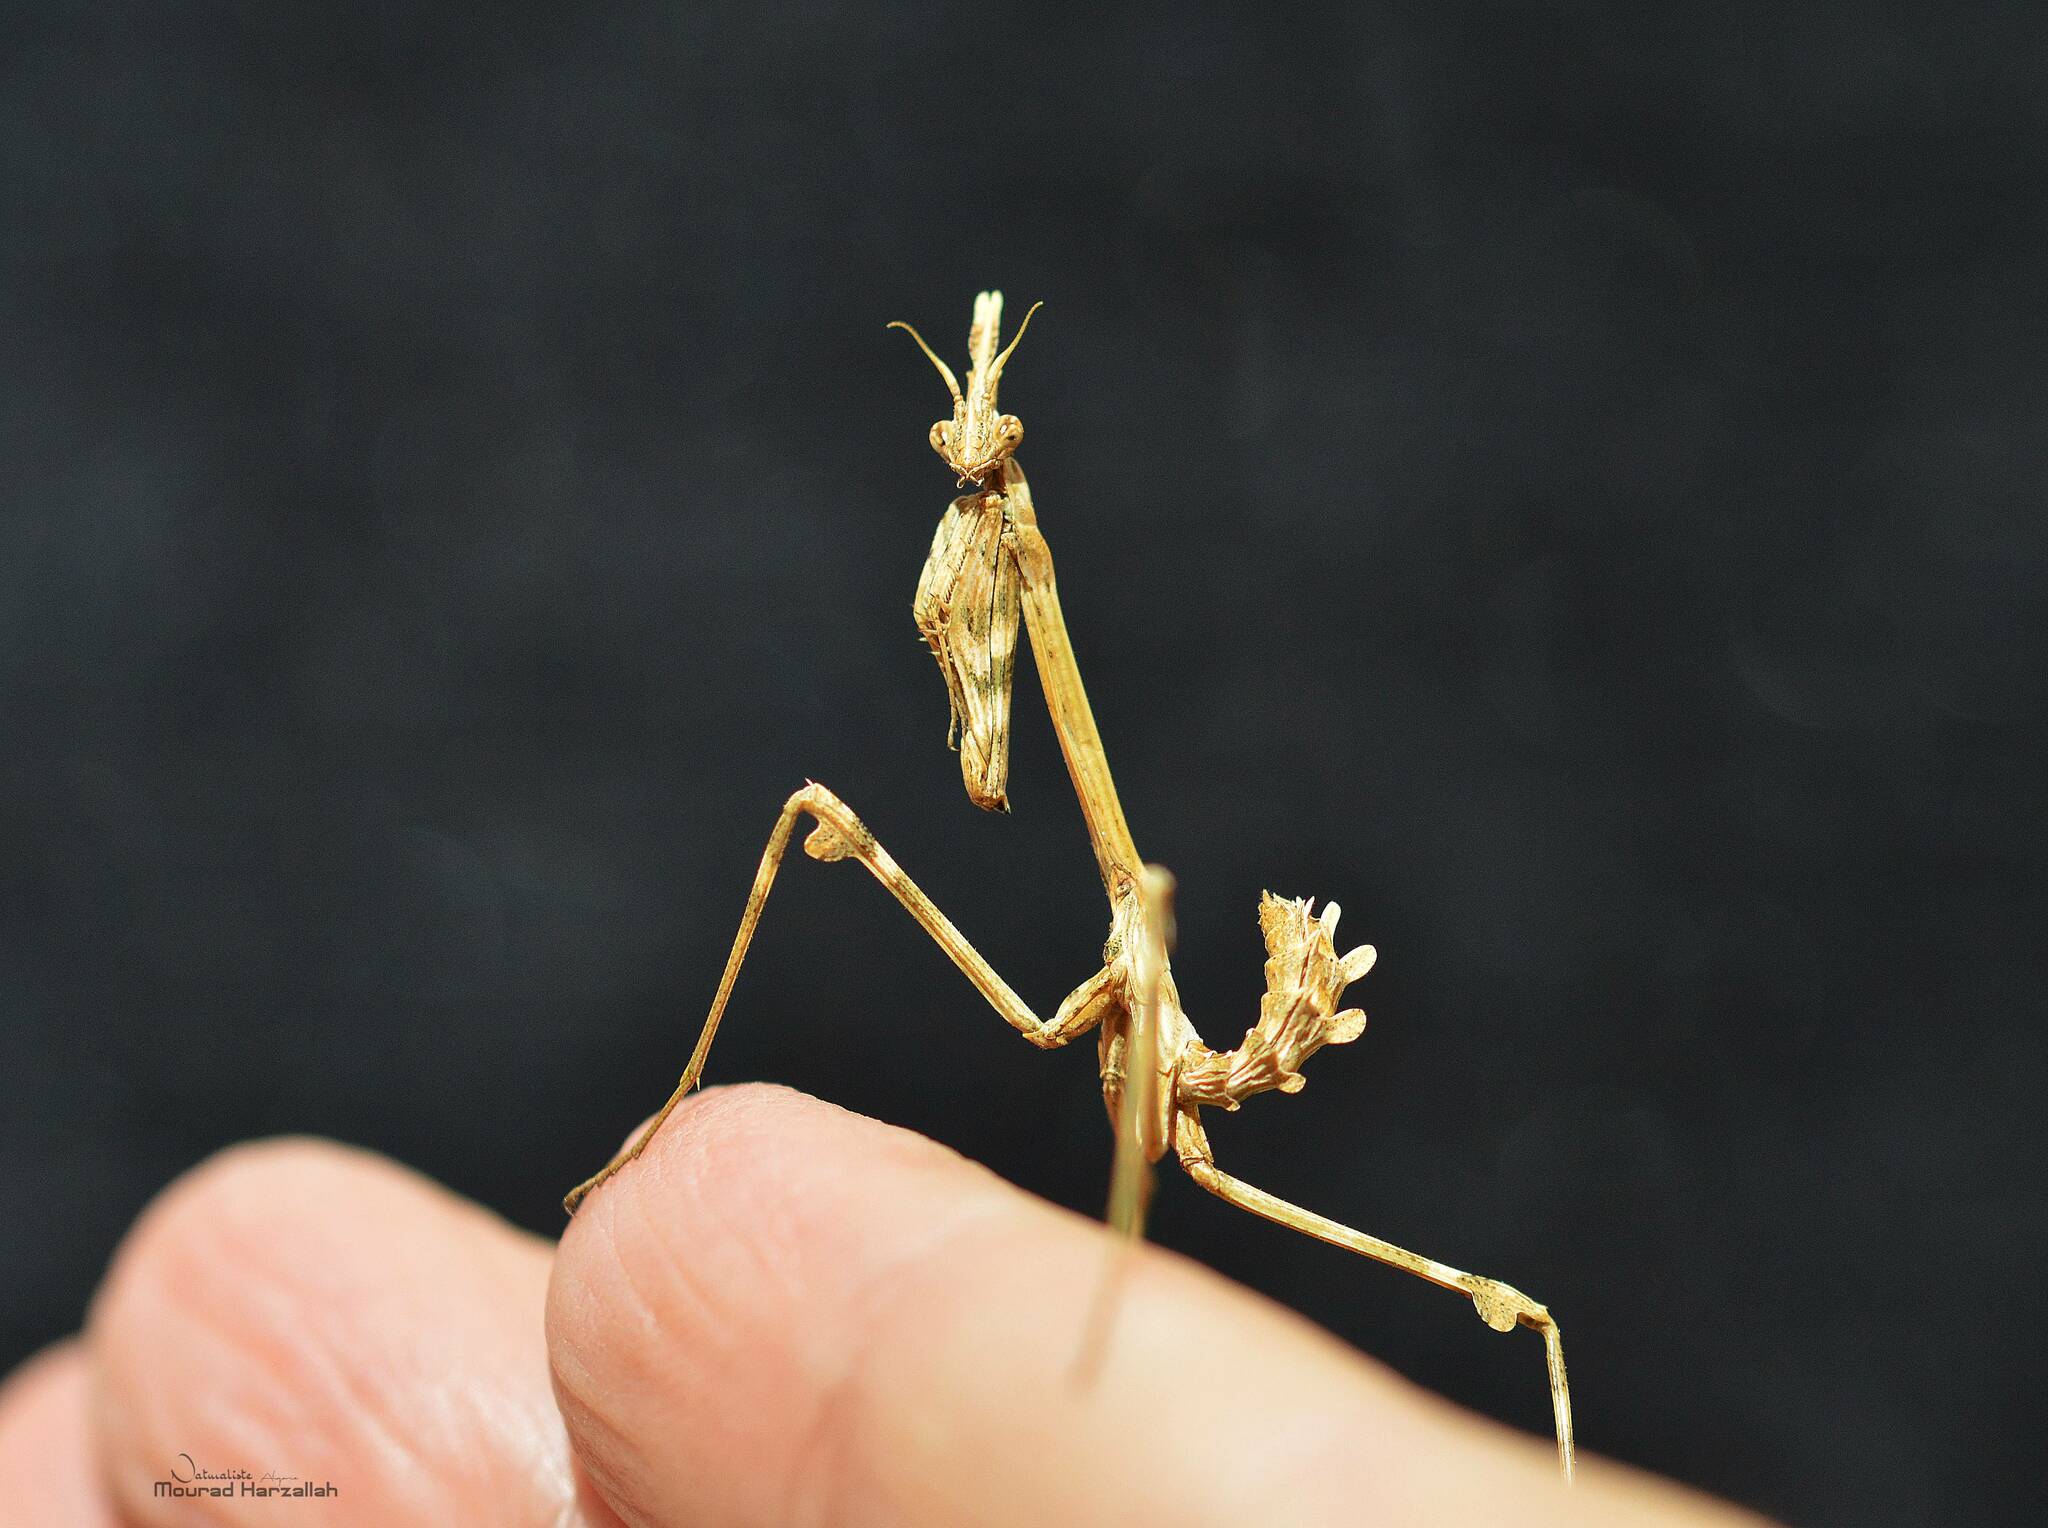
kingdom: Animalia
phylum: Arthropoda
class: Insecta
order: Mantodea
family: Empusidae
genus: Empusa
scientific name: Empusa pennata
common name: Conehead mantis
